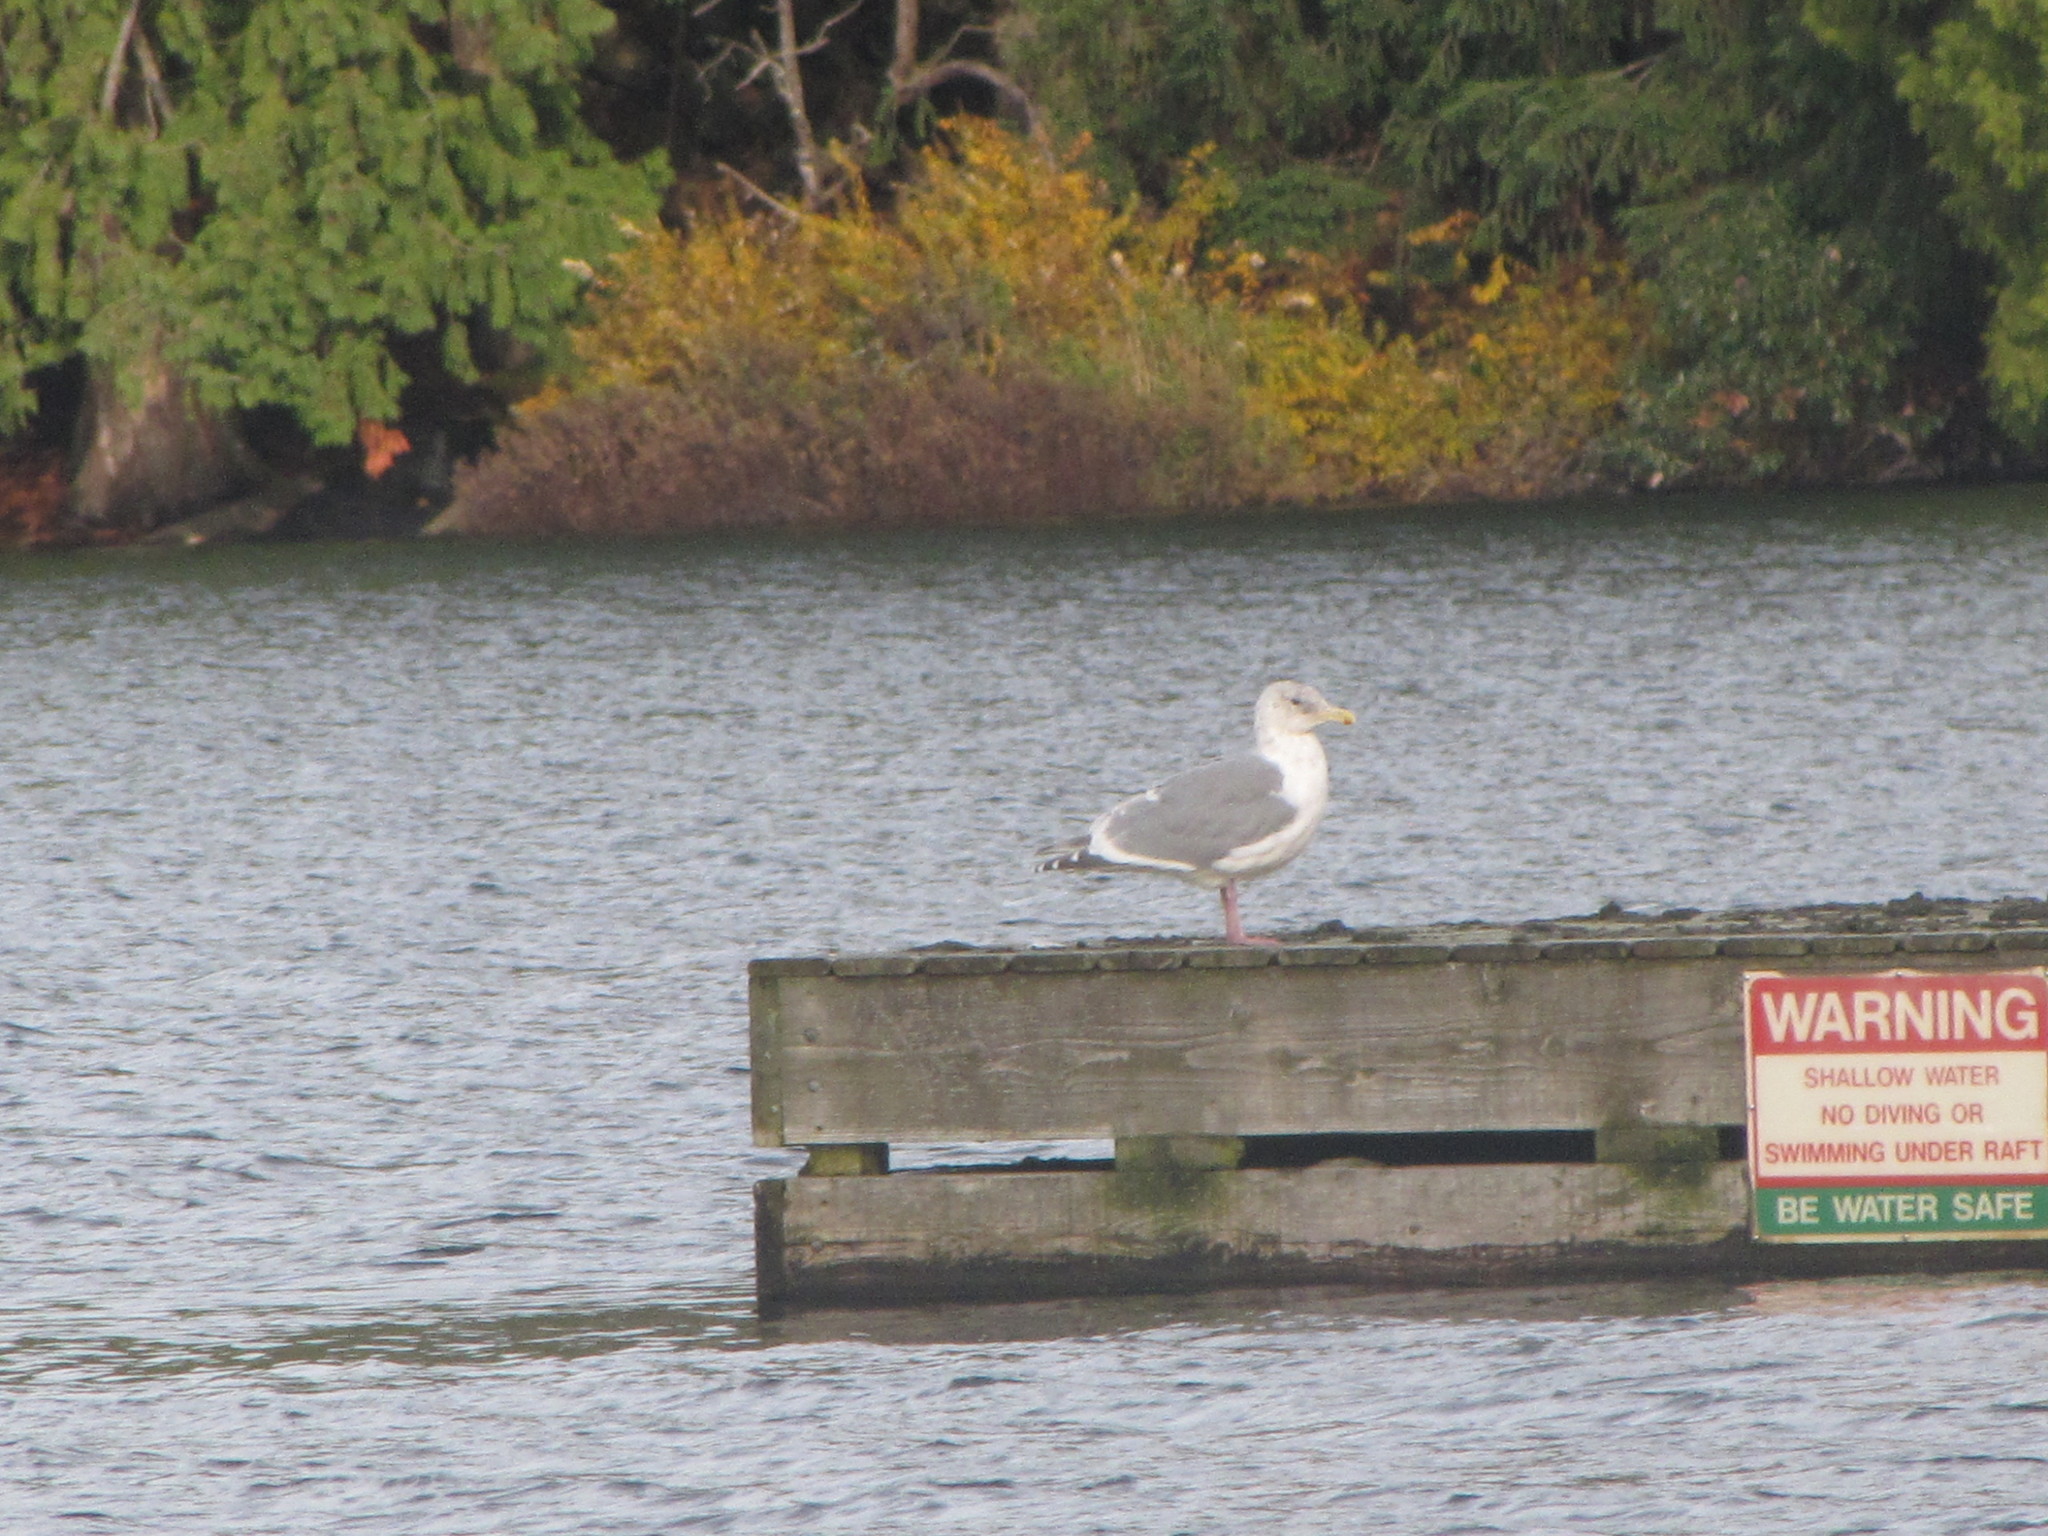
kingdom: Animalia
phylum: Chordata
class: Aves
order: Charadriiformes
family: Laridae
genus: Larus
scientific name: Larus
